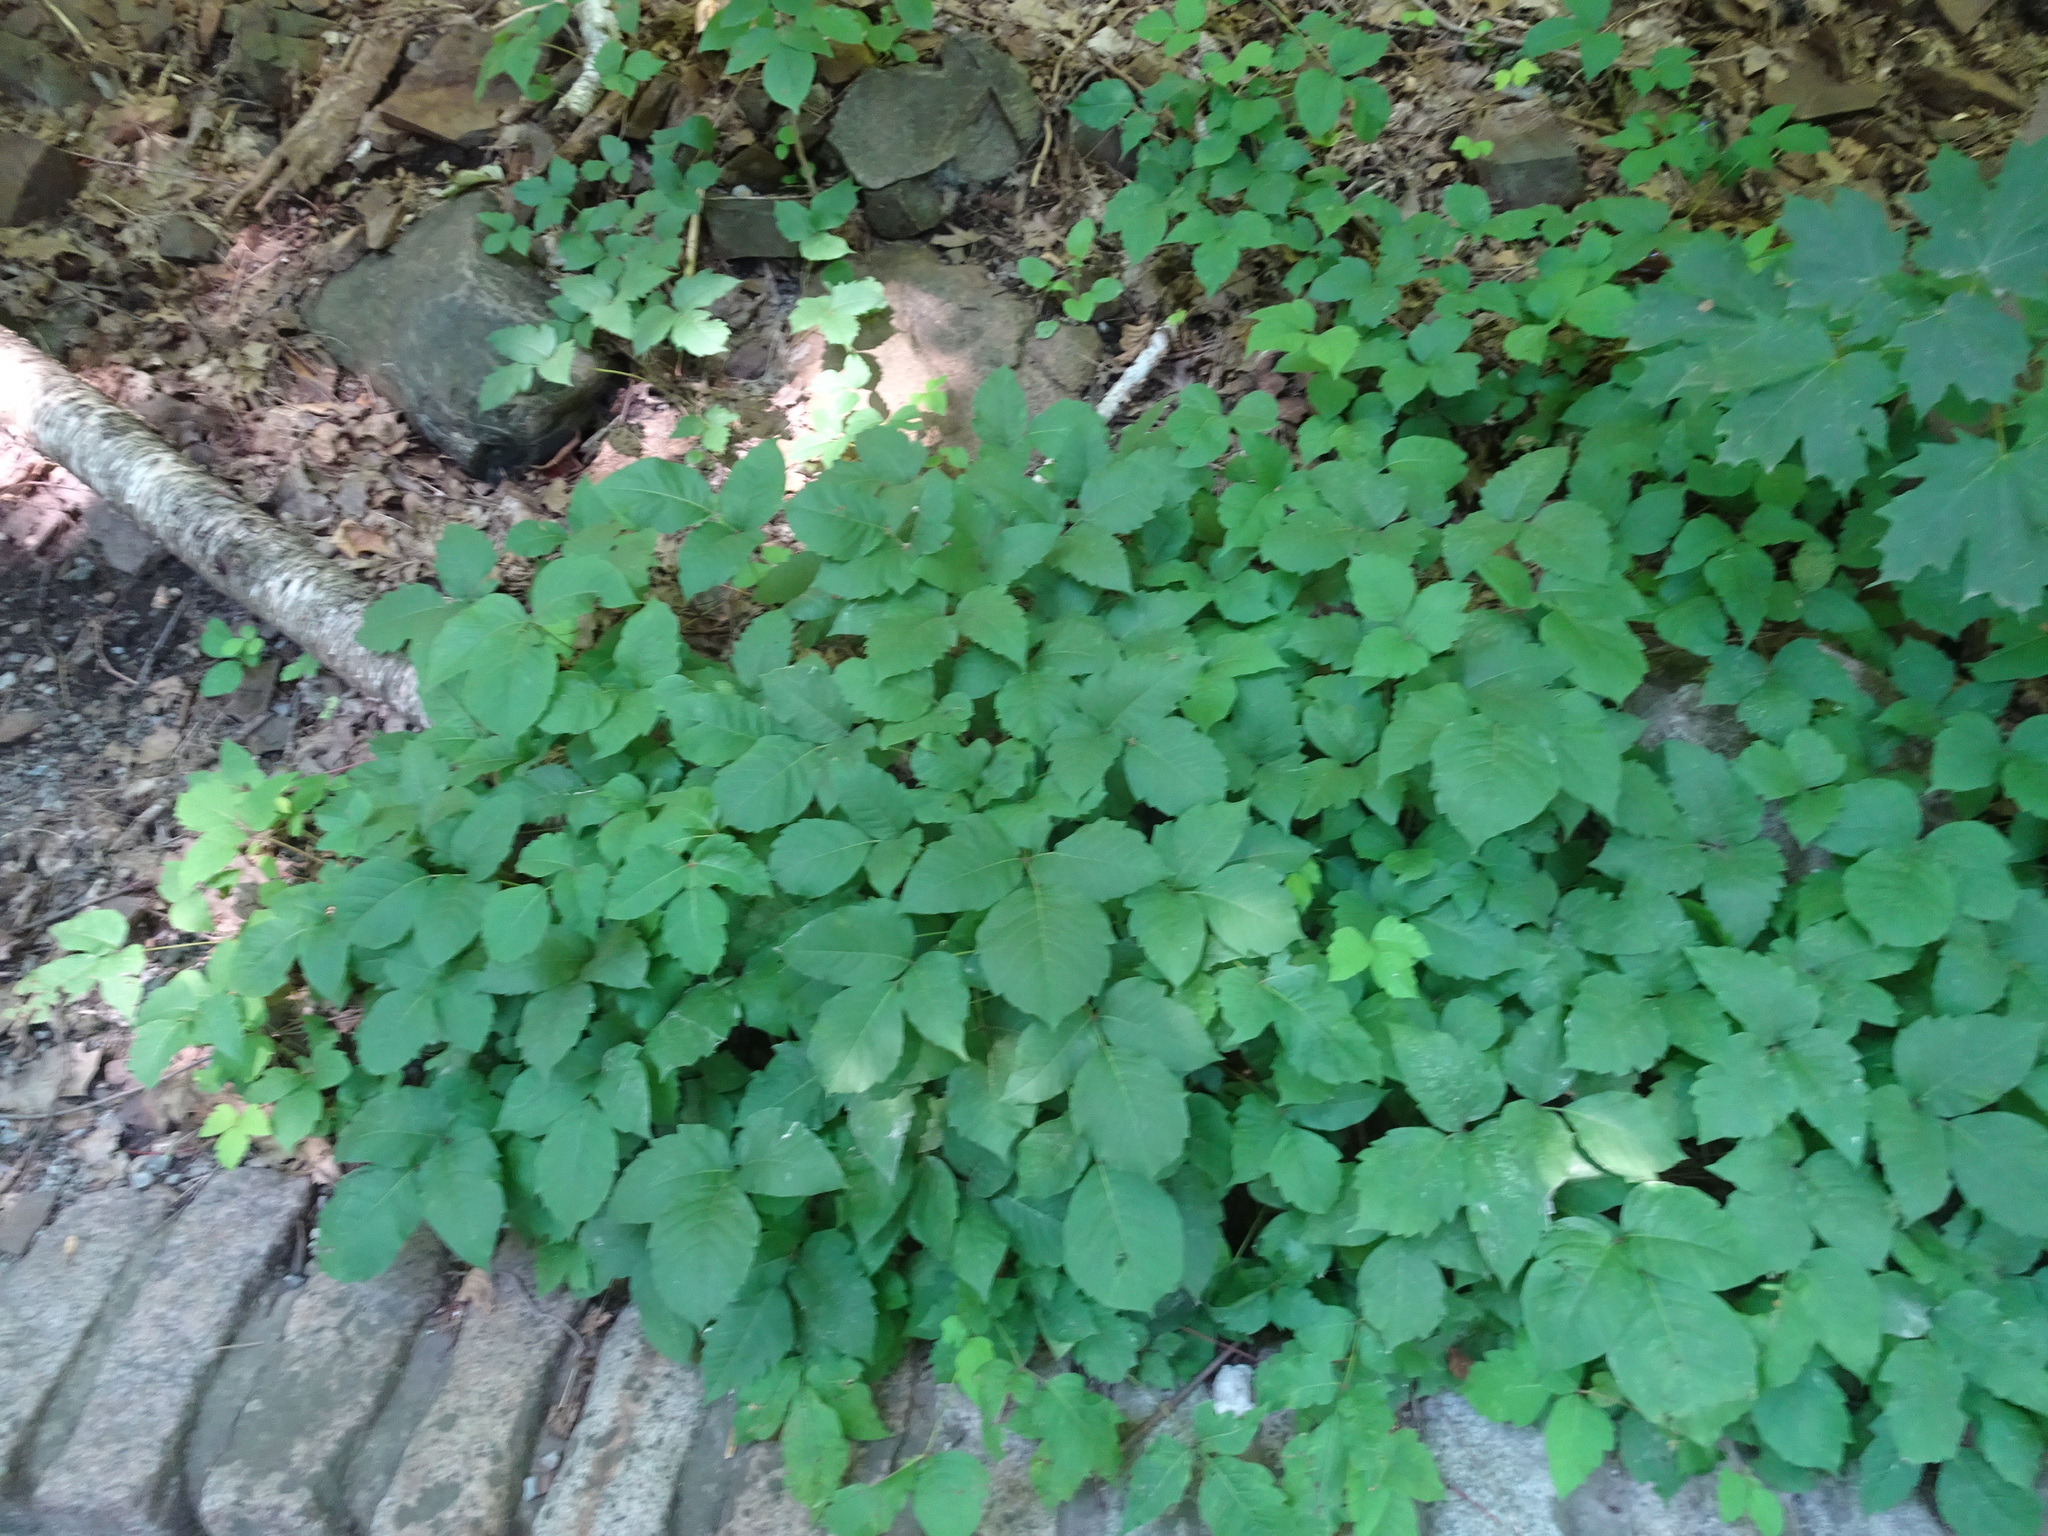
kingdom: Plantae
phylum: Tracheophyta
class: Magnoliopsida
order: Sapindales
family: Anacardiaceae
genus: Toxicodendron
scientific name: Toxicodendron radicans
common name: Poison ivy
